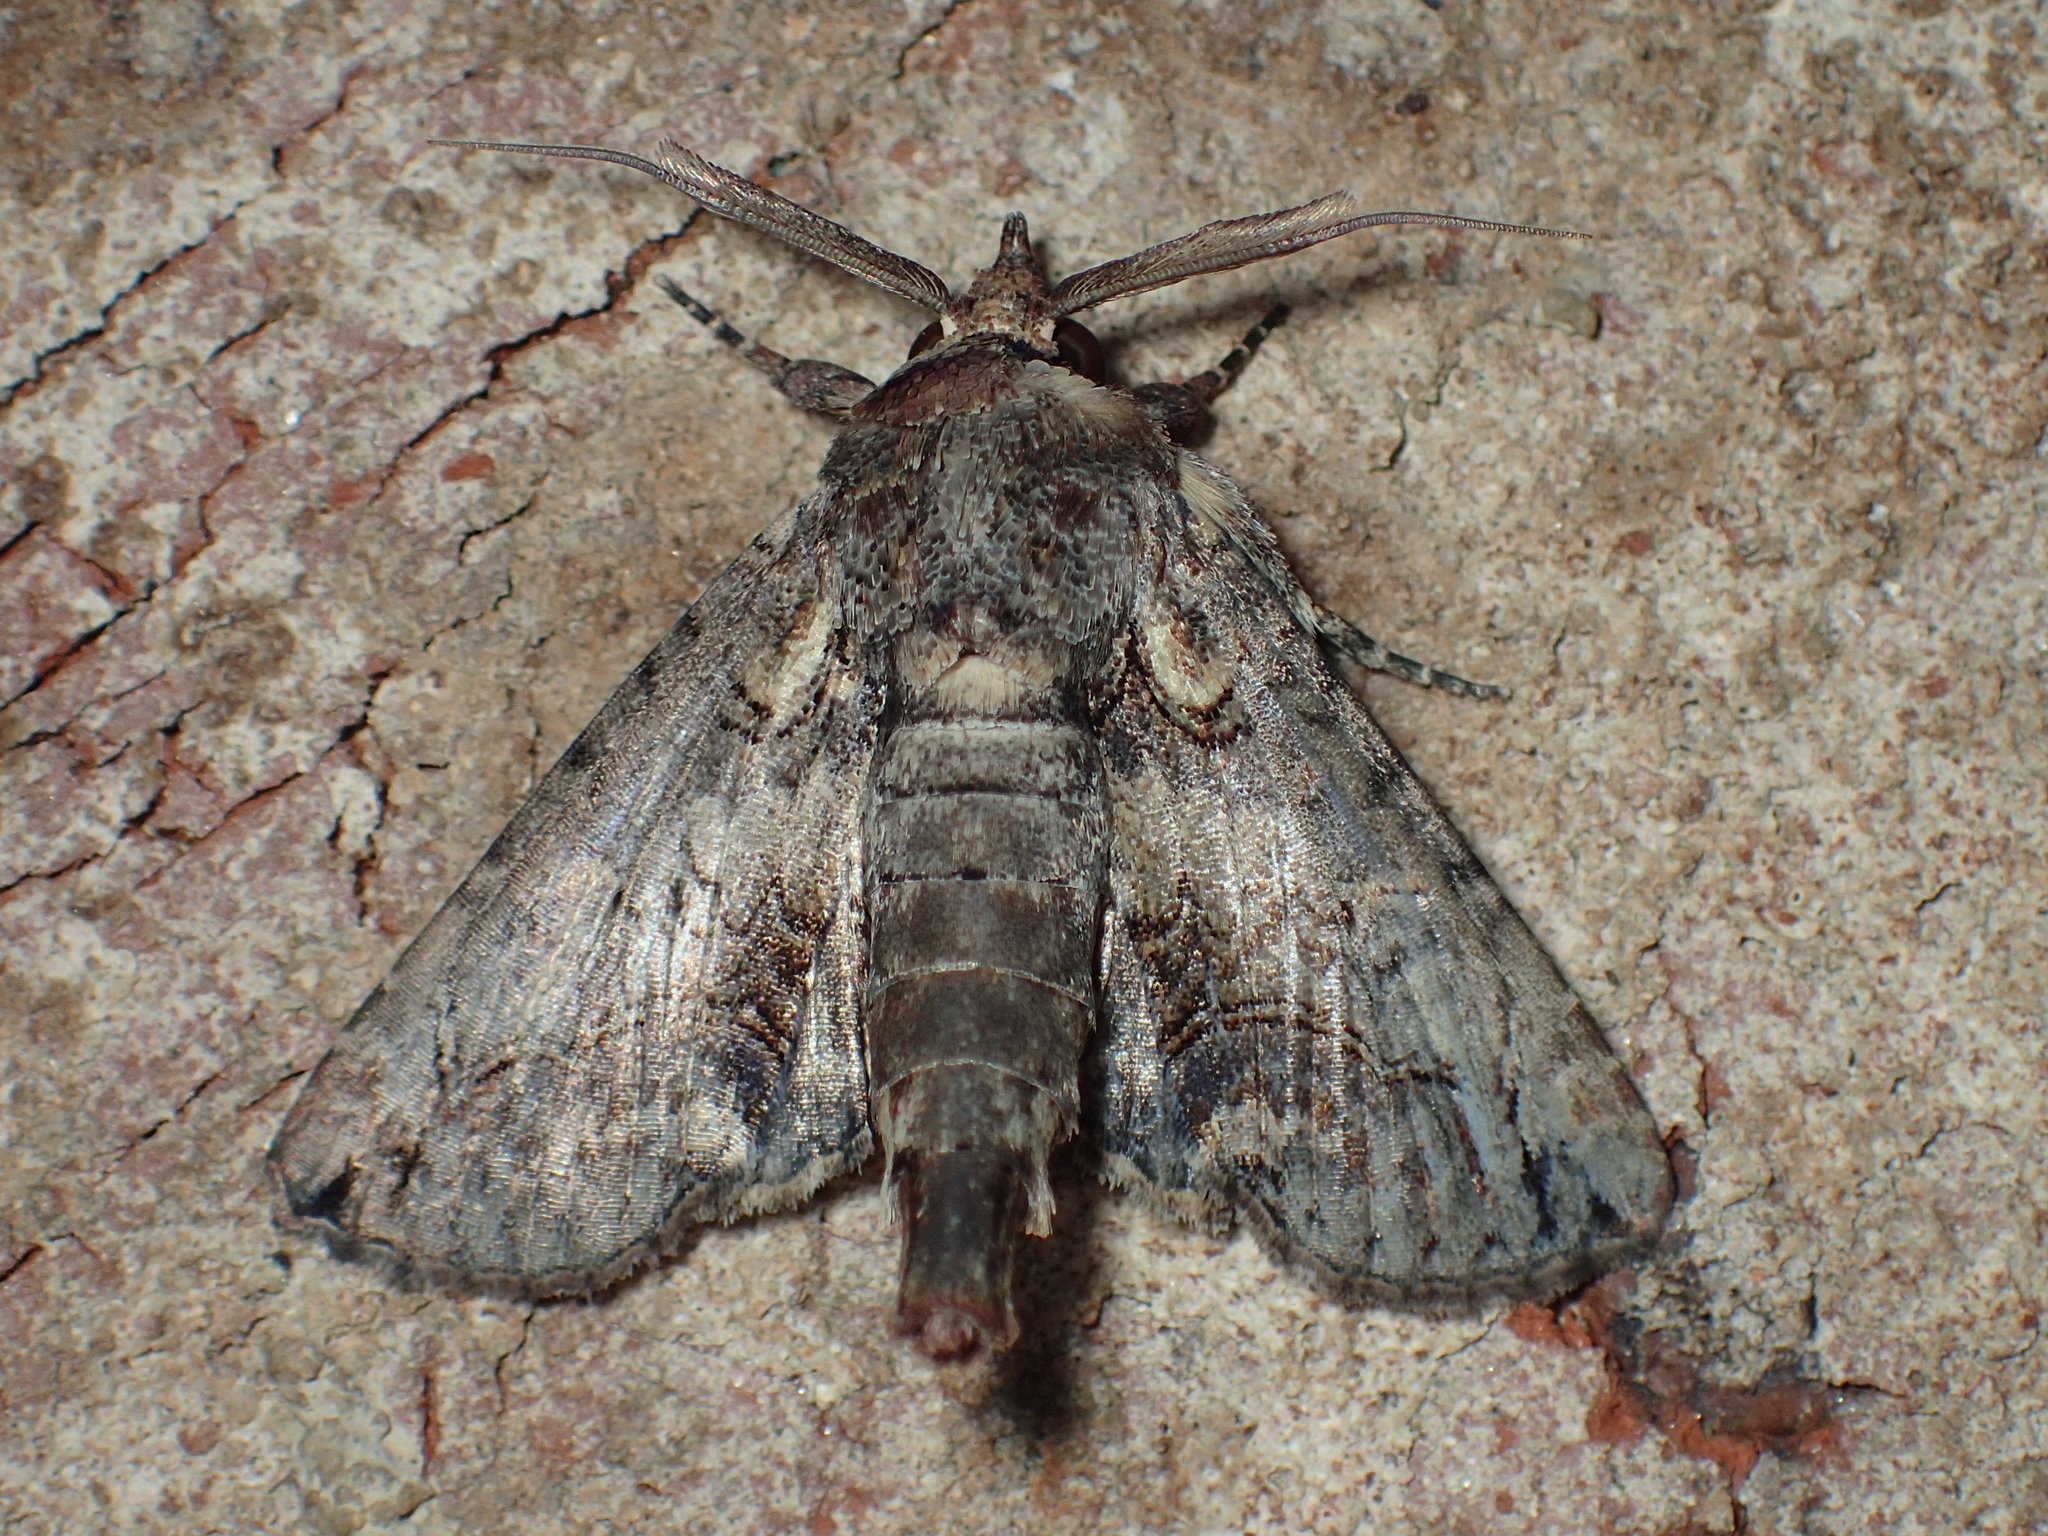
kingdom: Animalia
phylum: Arthropoda
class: Insecta
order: Lepidoptera
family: Euteliidae
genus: Paectes
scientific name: Paectes abrostoloides
